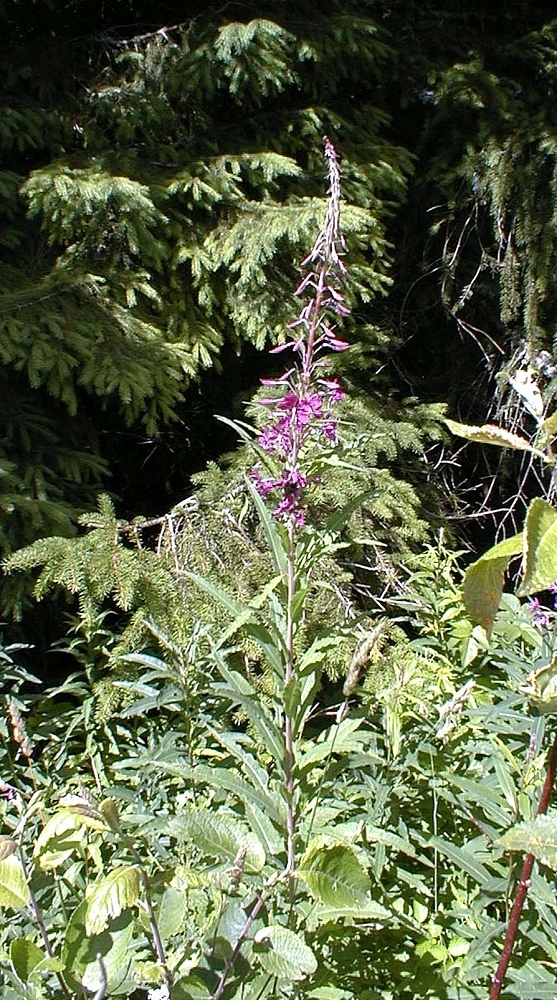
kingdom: Plantae
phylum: Tracheophyta
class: Magnoliopsida
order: Myrtales
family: Onagraceae
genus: Chamaenerion
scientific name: Chamaenerion angustifolium
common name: Fireweed
